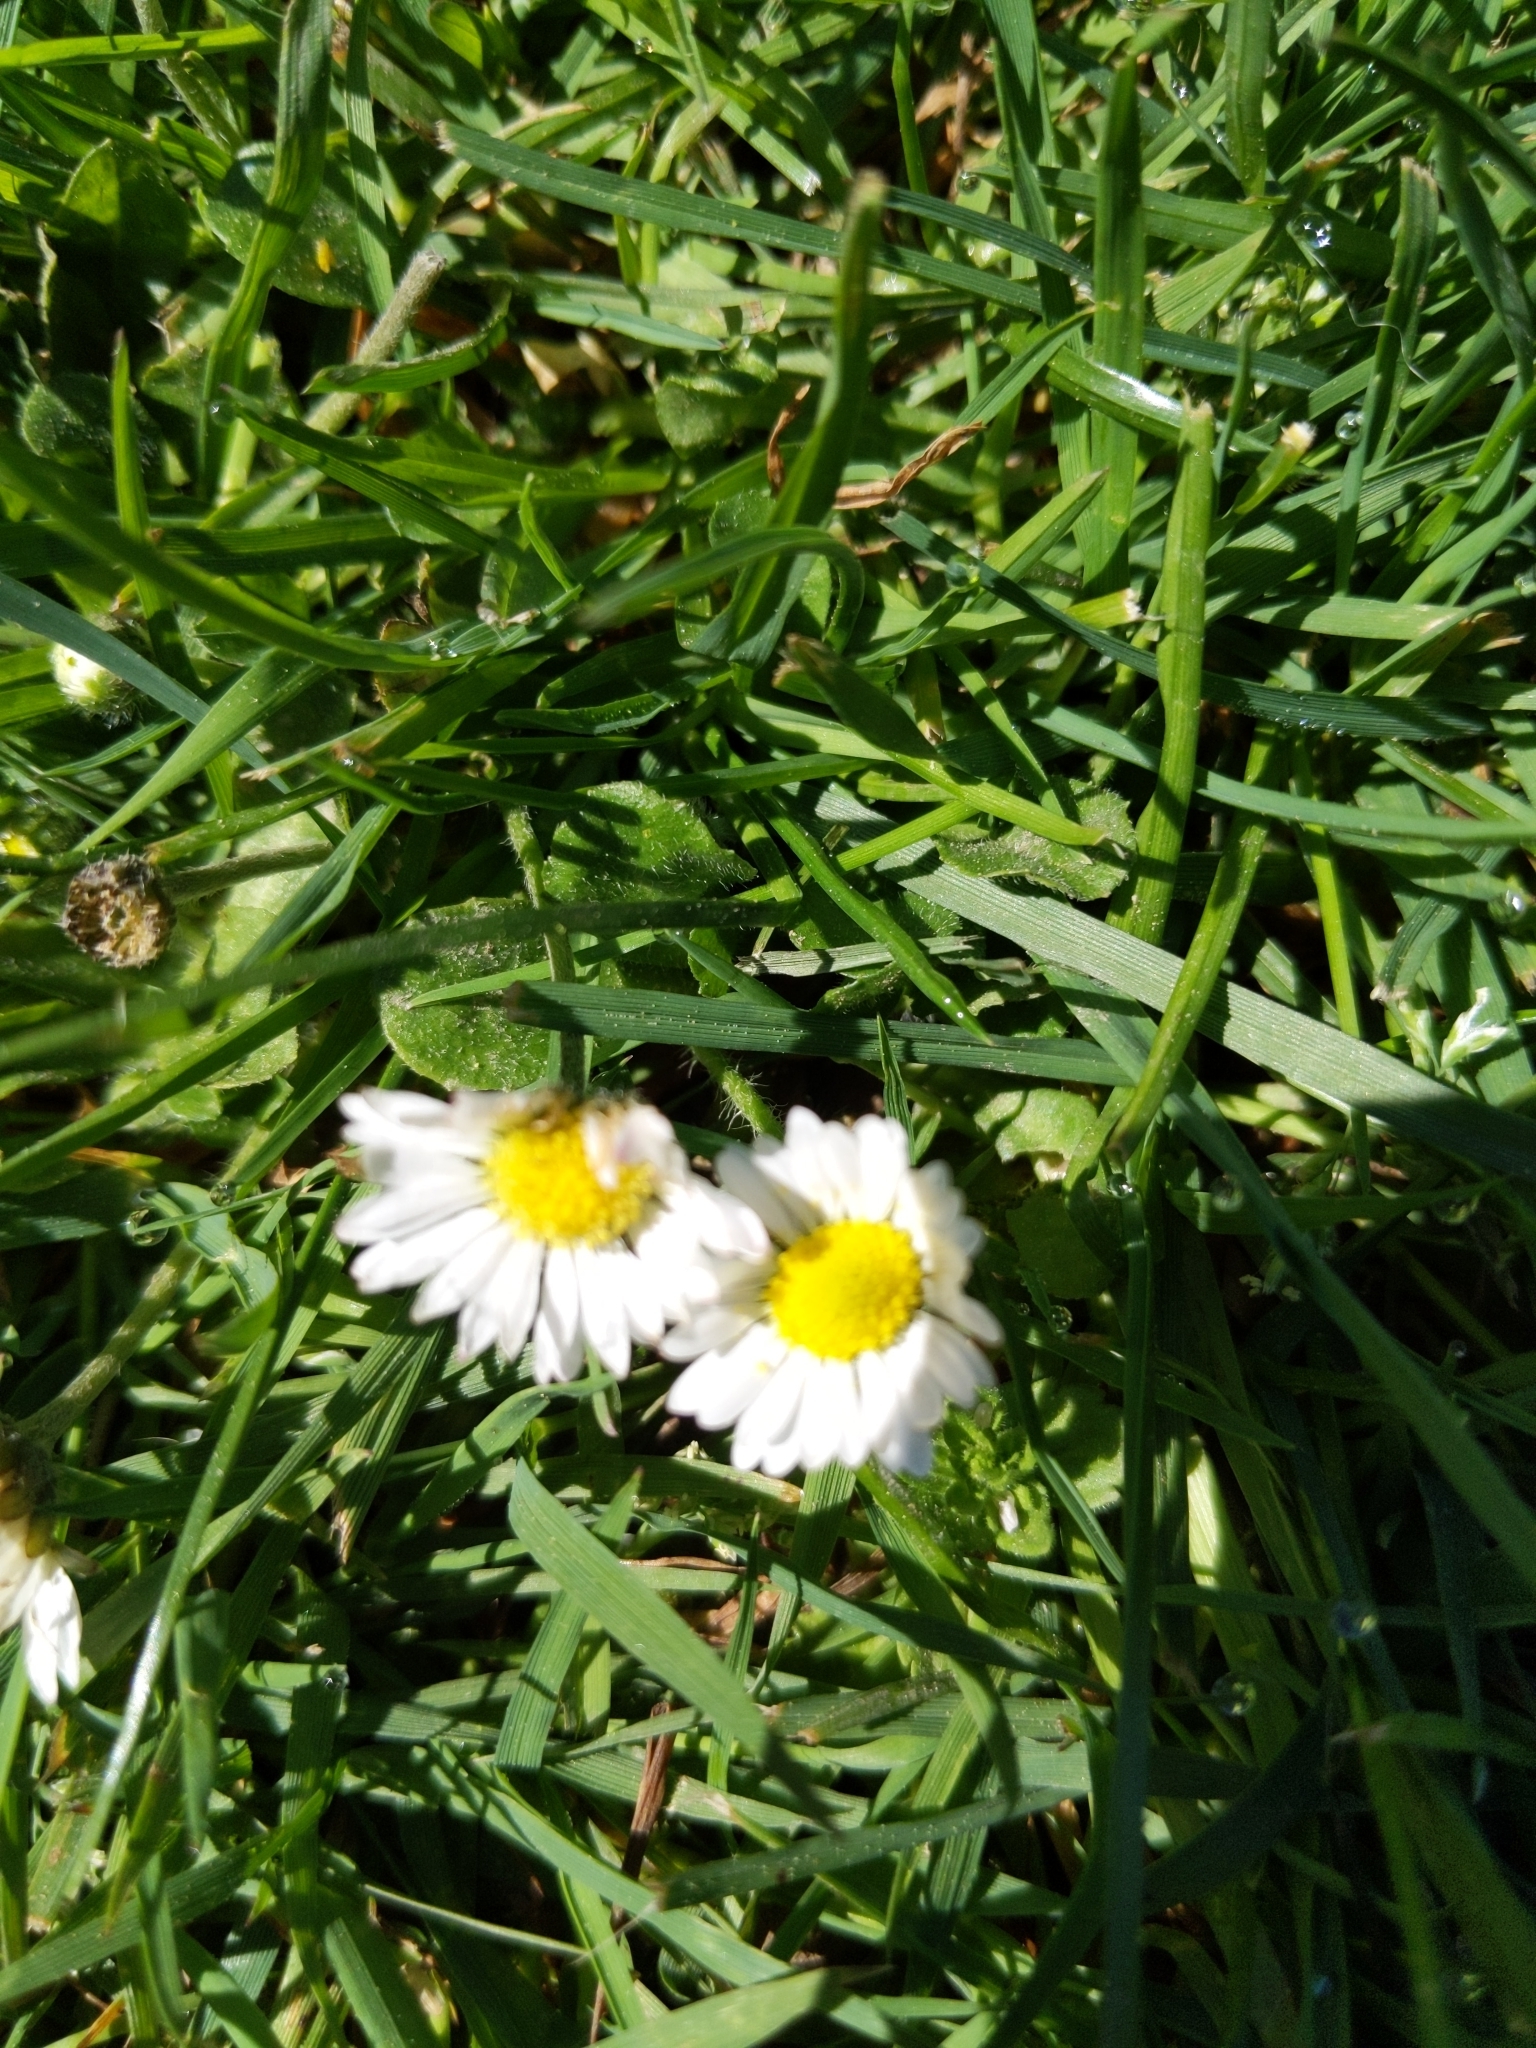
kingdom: Plantae
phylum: Tracheophyta
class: Magnoliopsida
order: Asterales
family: Asteraceae
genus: Bellis
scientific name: Bellis perennis
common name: Lawndaisy
